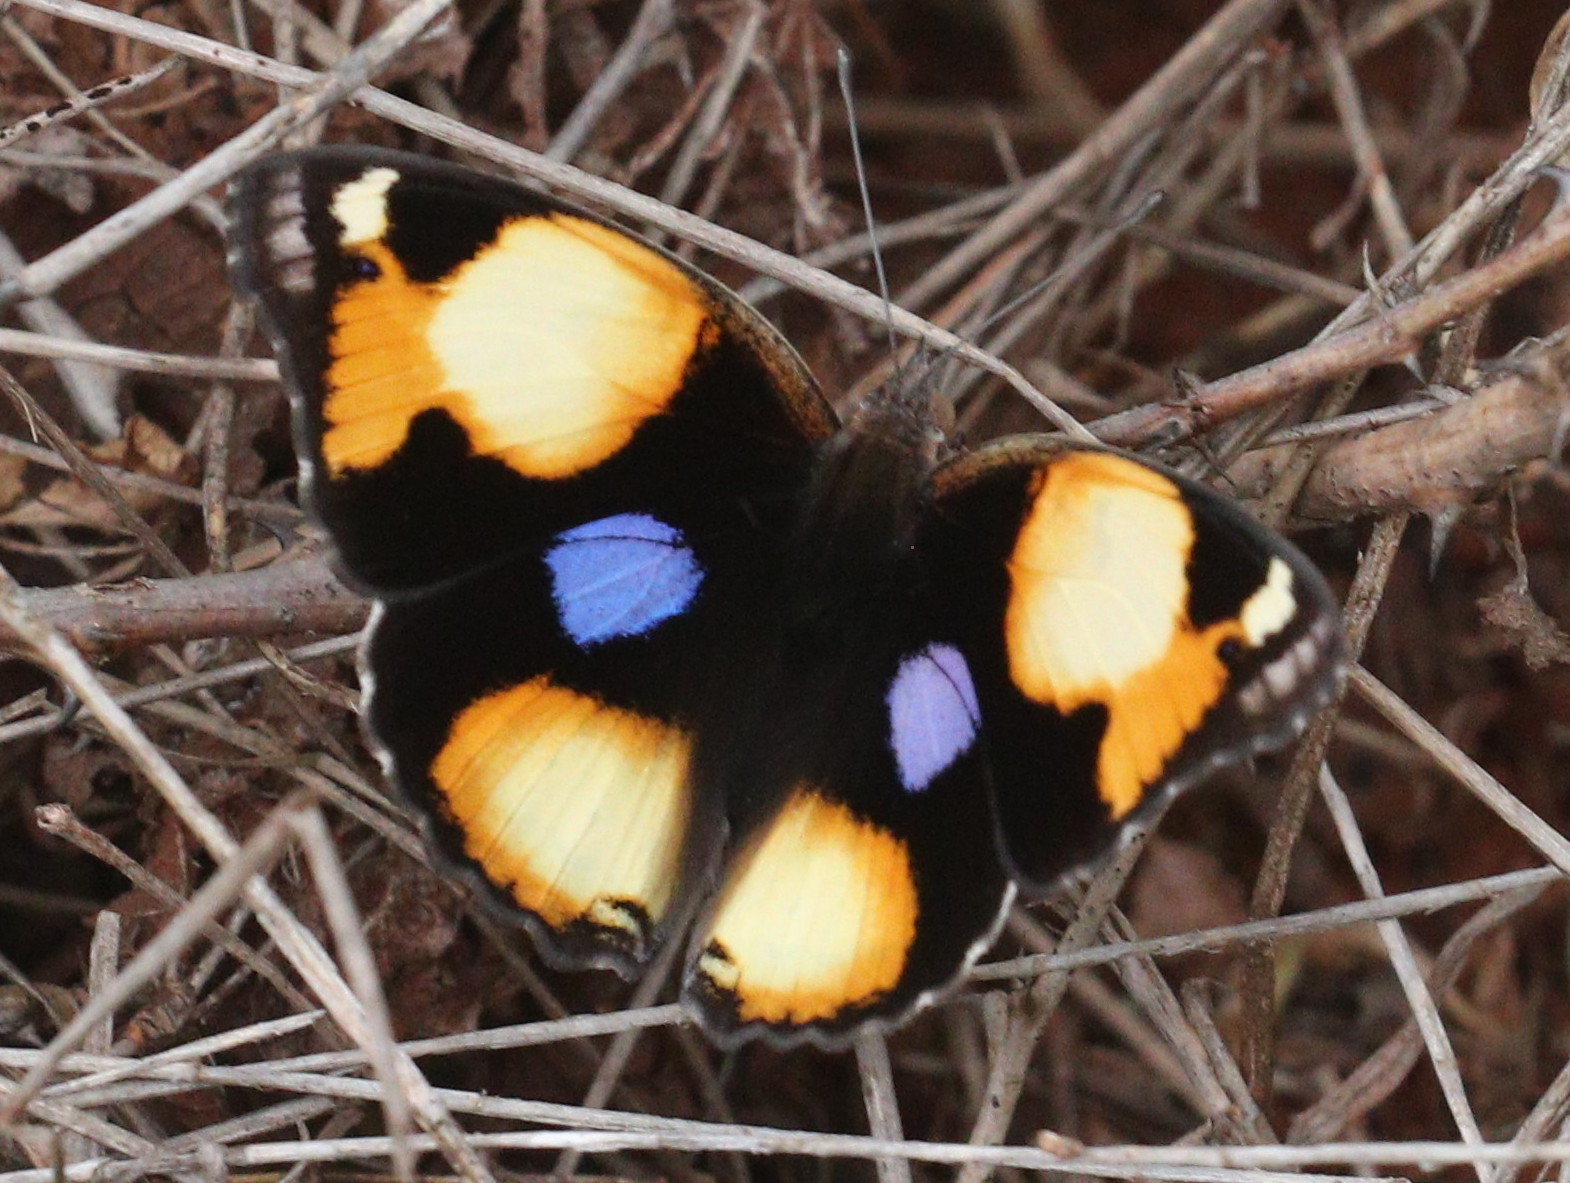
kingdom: Animalia
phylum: Arthropoda
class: Insecta
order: Lepidoptera
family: Nymphalidae
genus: Junonia
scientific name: Junonia hierta
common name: Yellow pansy
